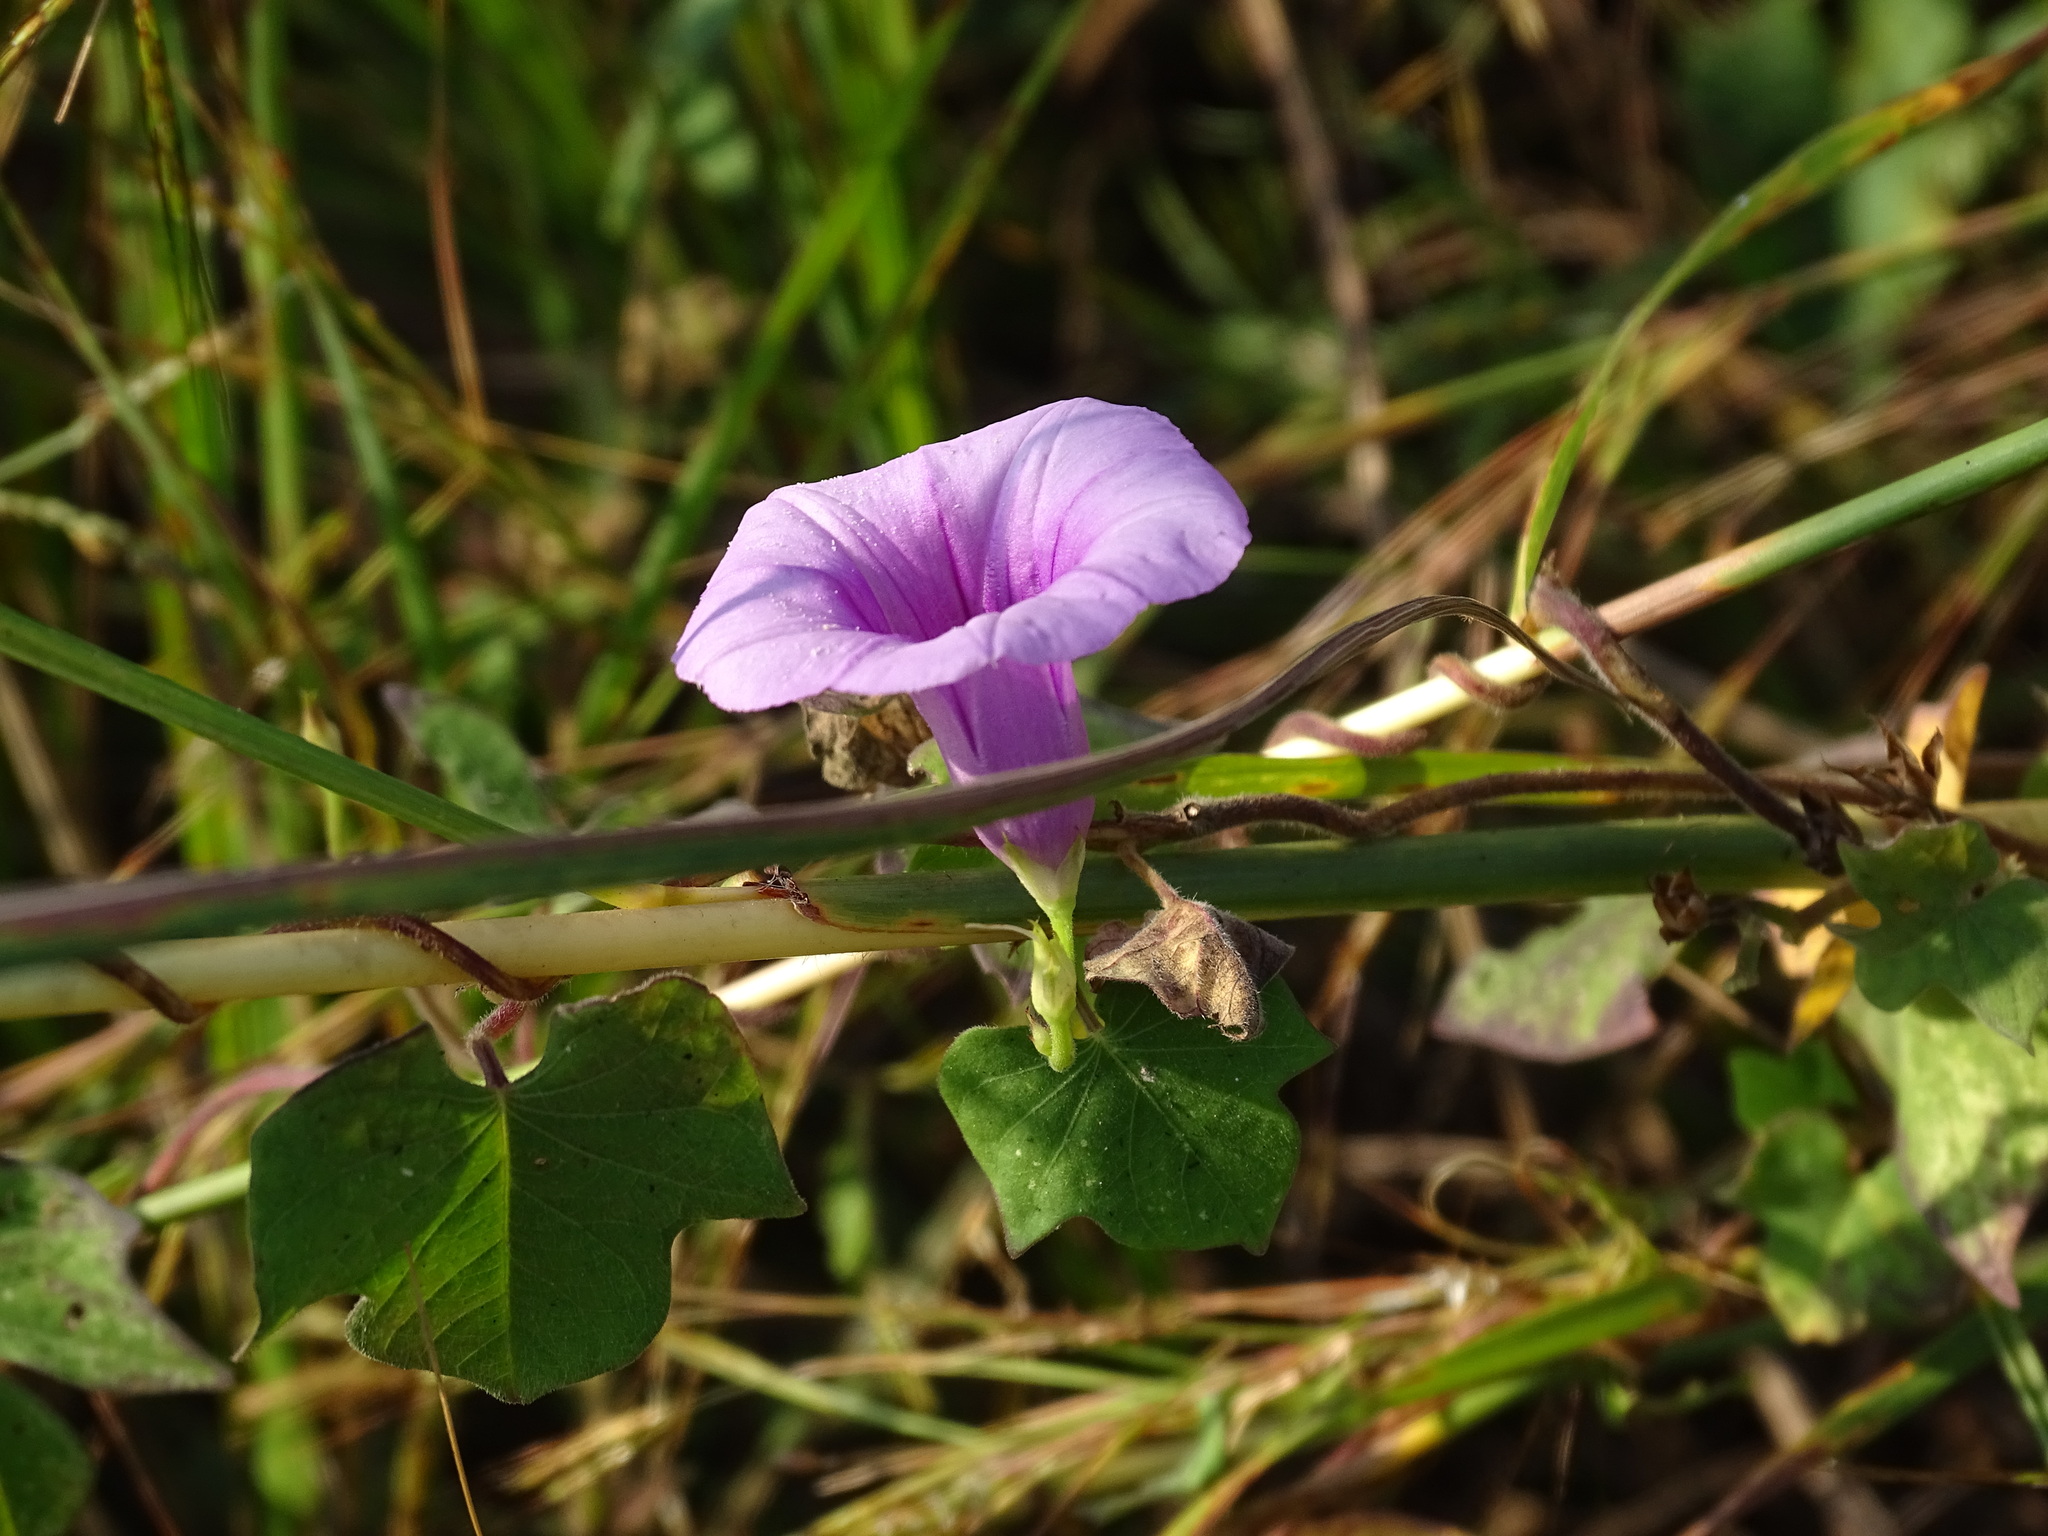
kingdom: Plantae
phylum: Tracheophyta
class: Magnoliopsida
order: Solanales
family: Convolvulaceae
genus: Ipomoea
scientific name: Ipomoea trifida
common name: Cotton morningglory
